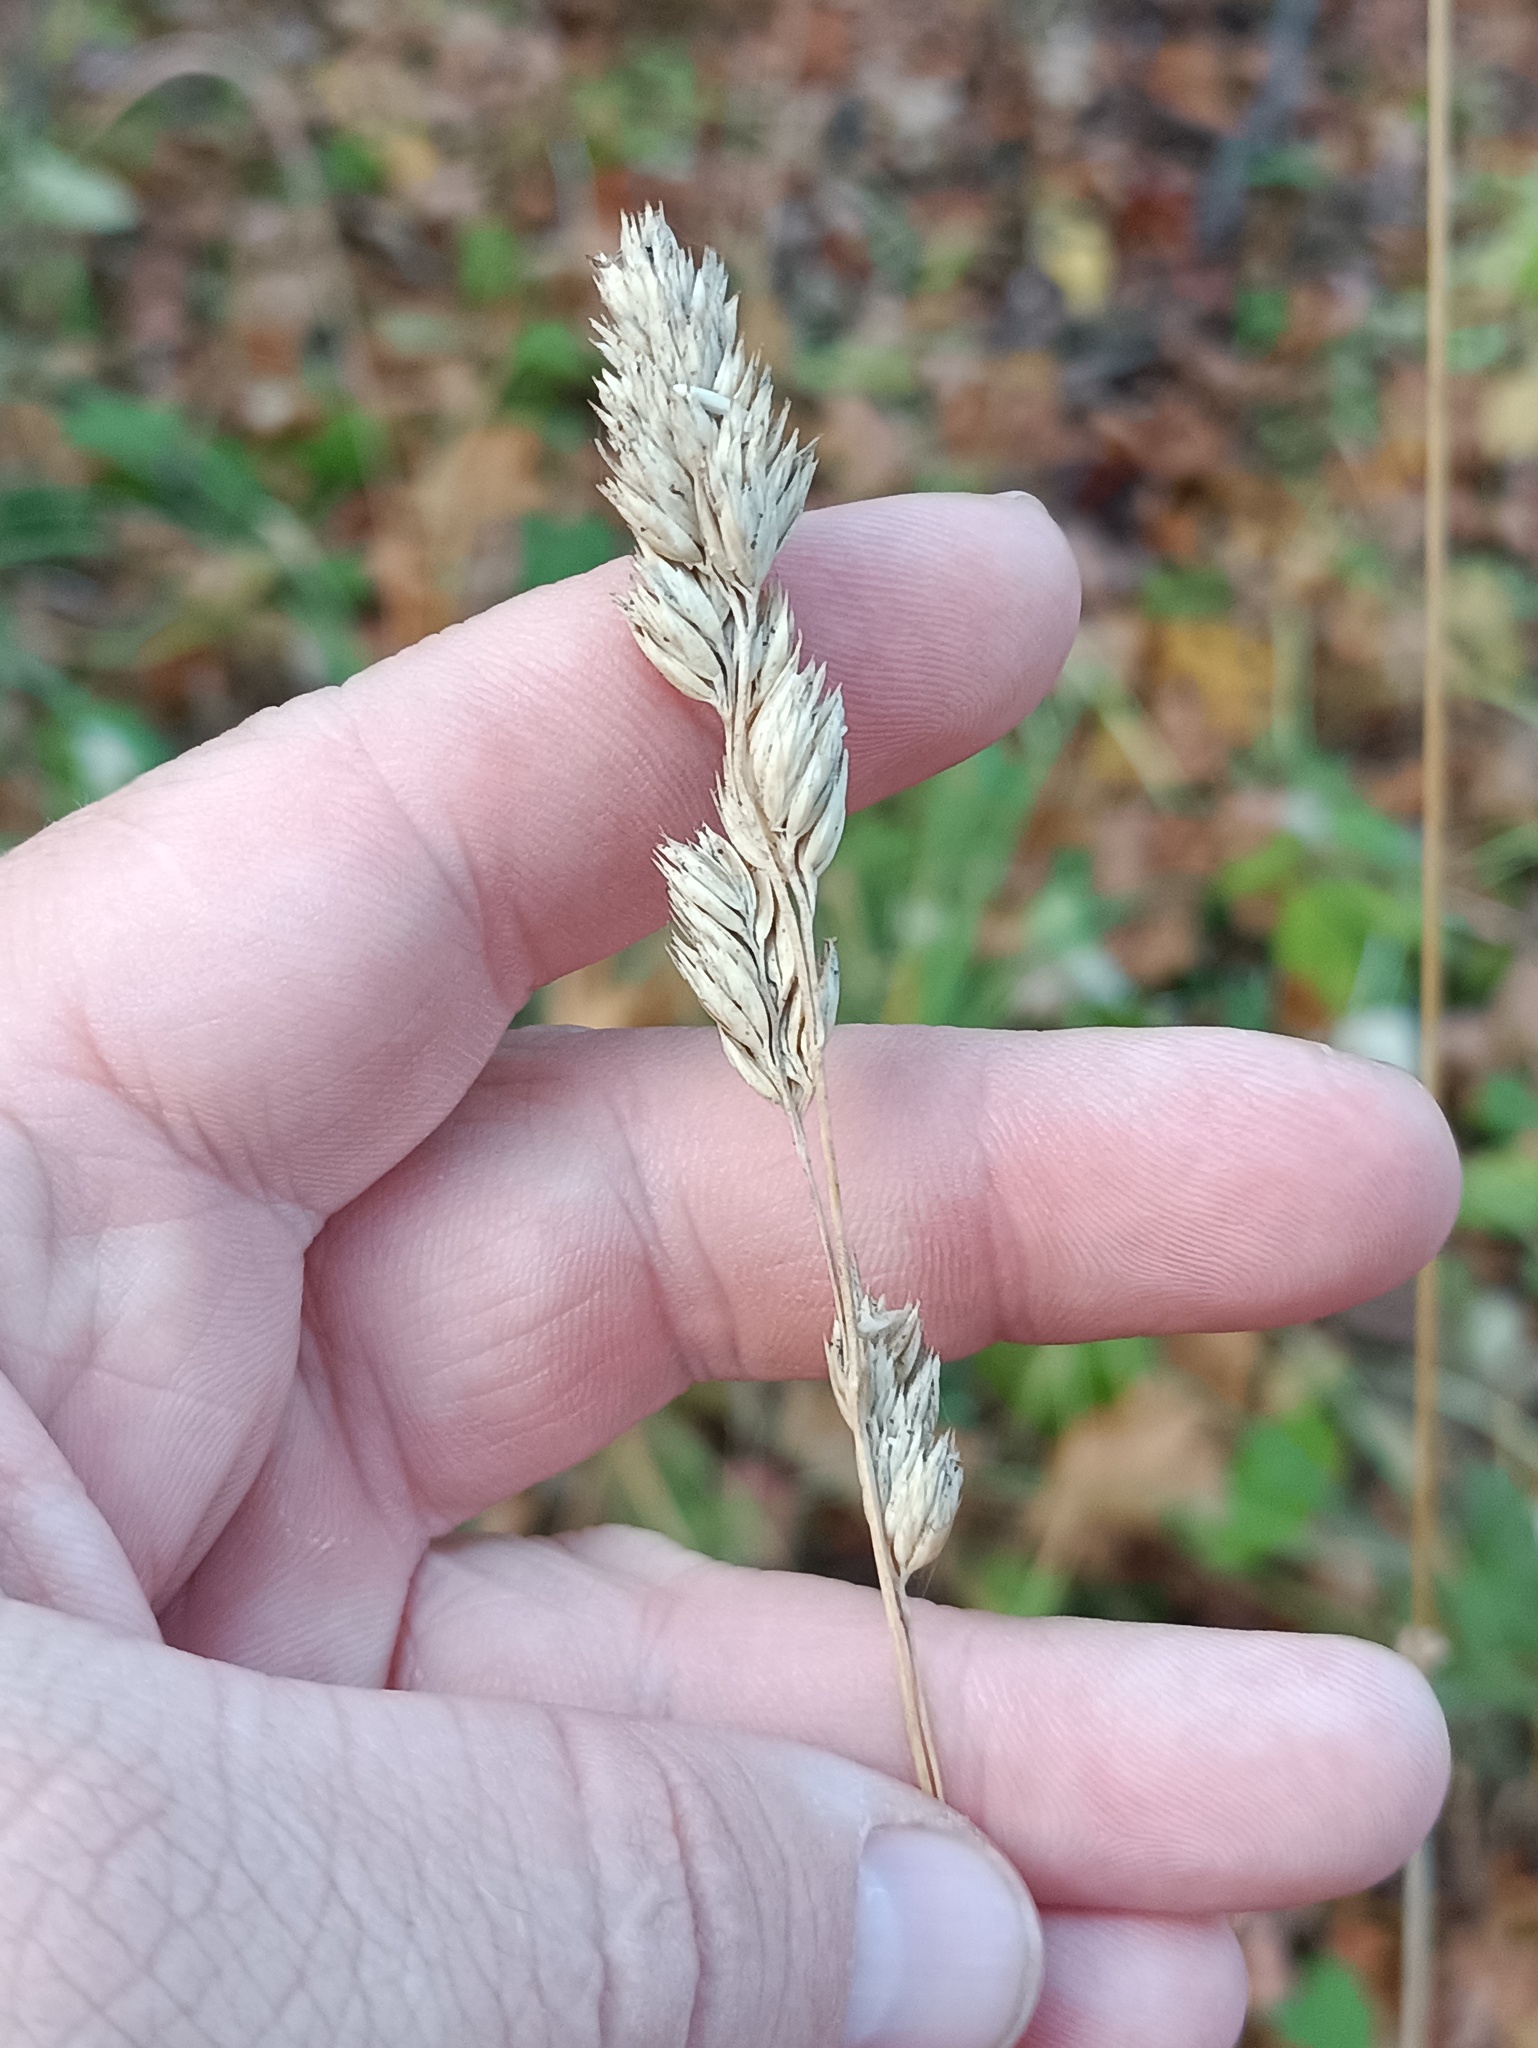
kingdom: Plantae
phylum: Tracheophyta
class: Liliopsida
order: Poales
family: Poaceae
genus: Dactylis
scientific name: Dactylis glomerata
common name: Orchardgrass
